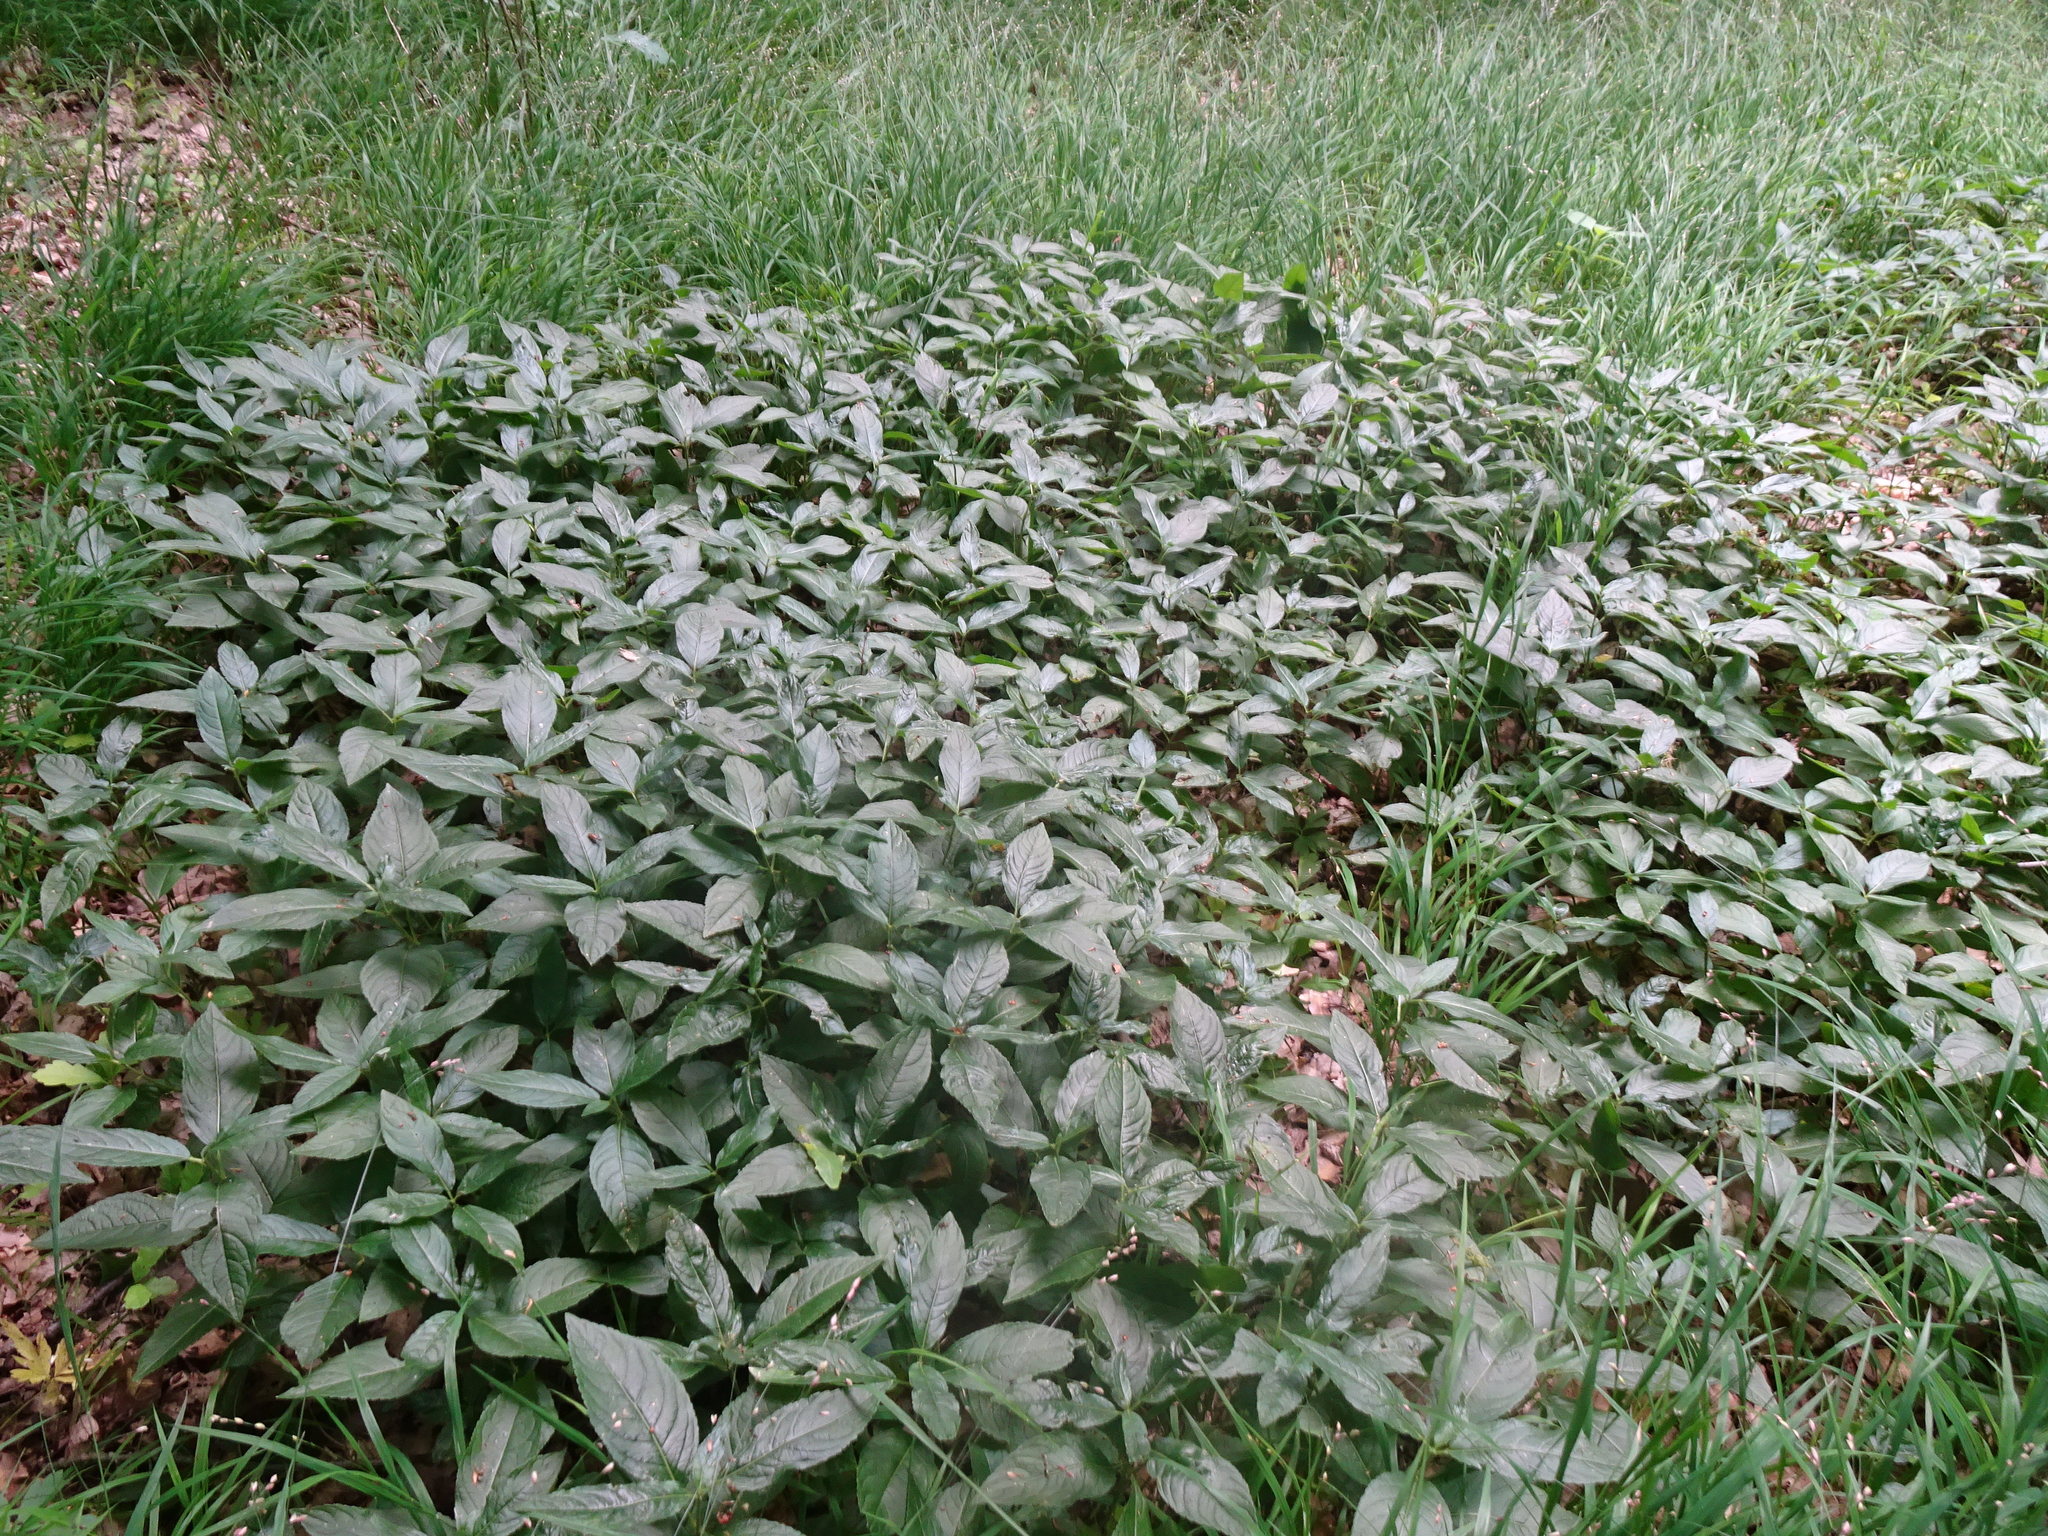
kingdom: Plantae
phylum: Tracheophyta
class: Magnoliopsida
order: Malpighiales
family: Euphorbiaceae
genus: Mercurialis
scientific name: Mercurialis perennis
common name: Dog mercury
